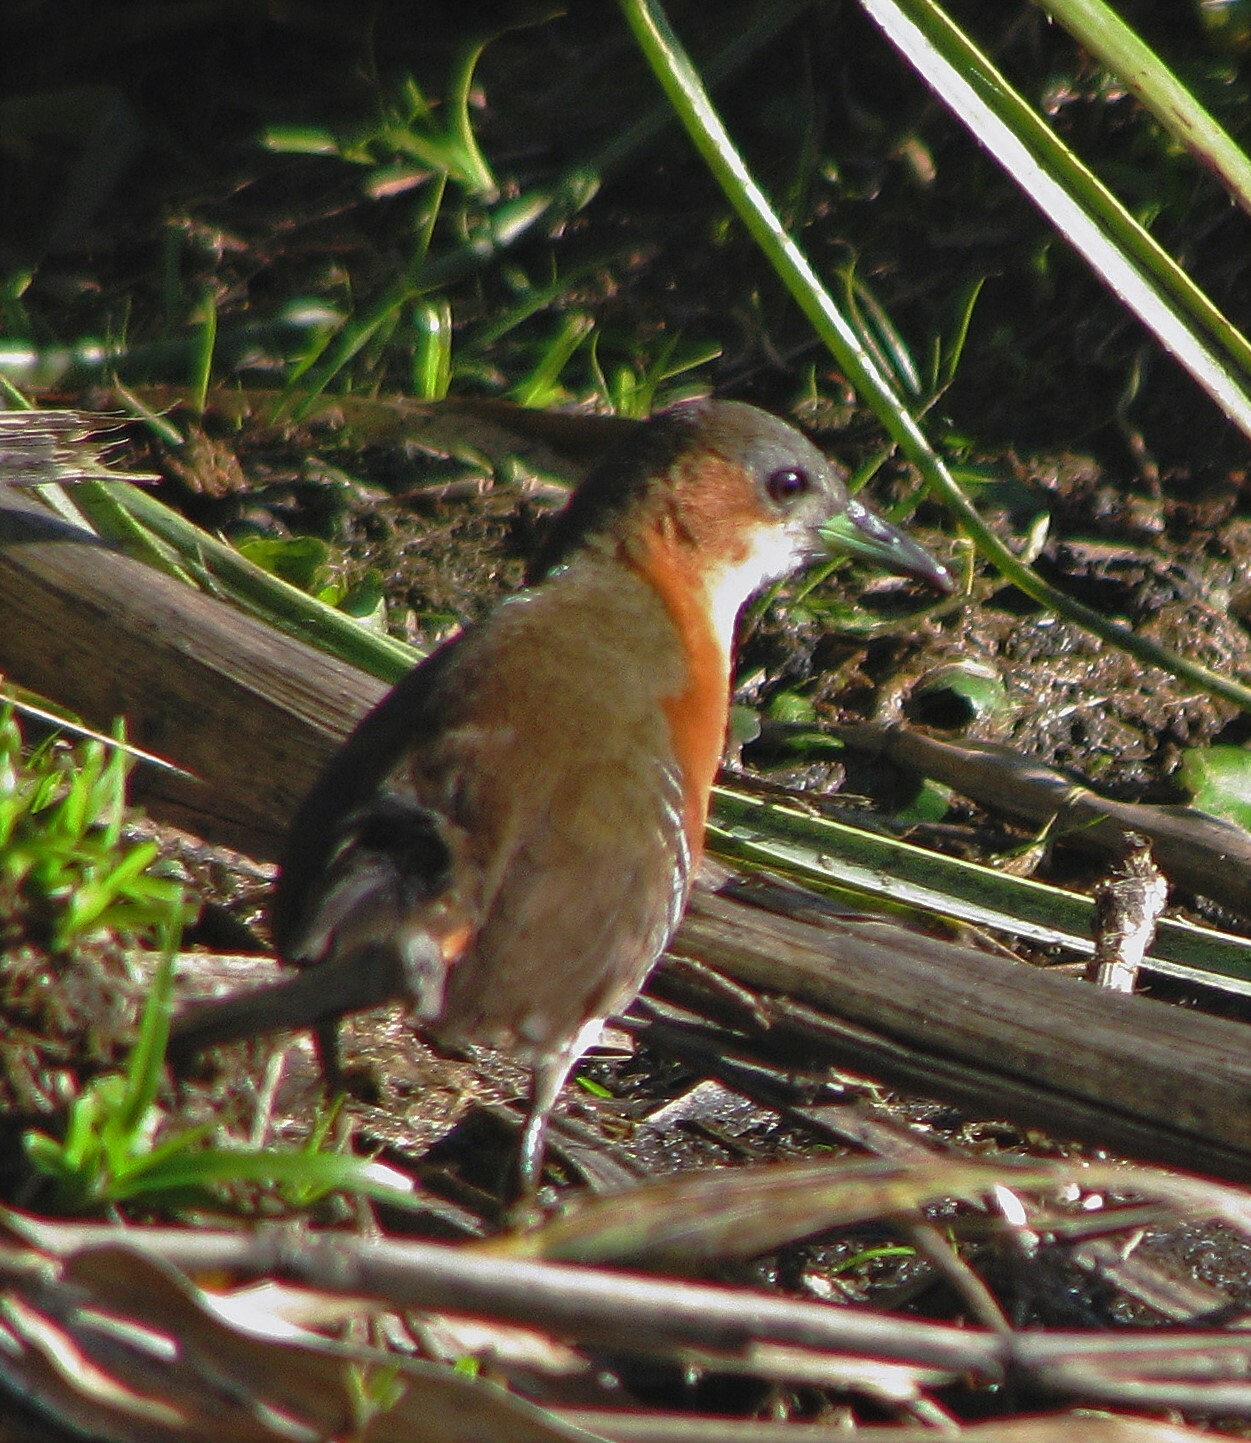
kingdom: Animalia
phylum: Chordata
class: Aves
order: Gruiformes
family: Rallidae
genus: Laterallus
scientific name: Laterallus melanophaius
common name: Rufous-sided crake
